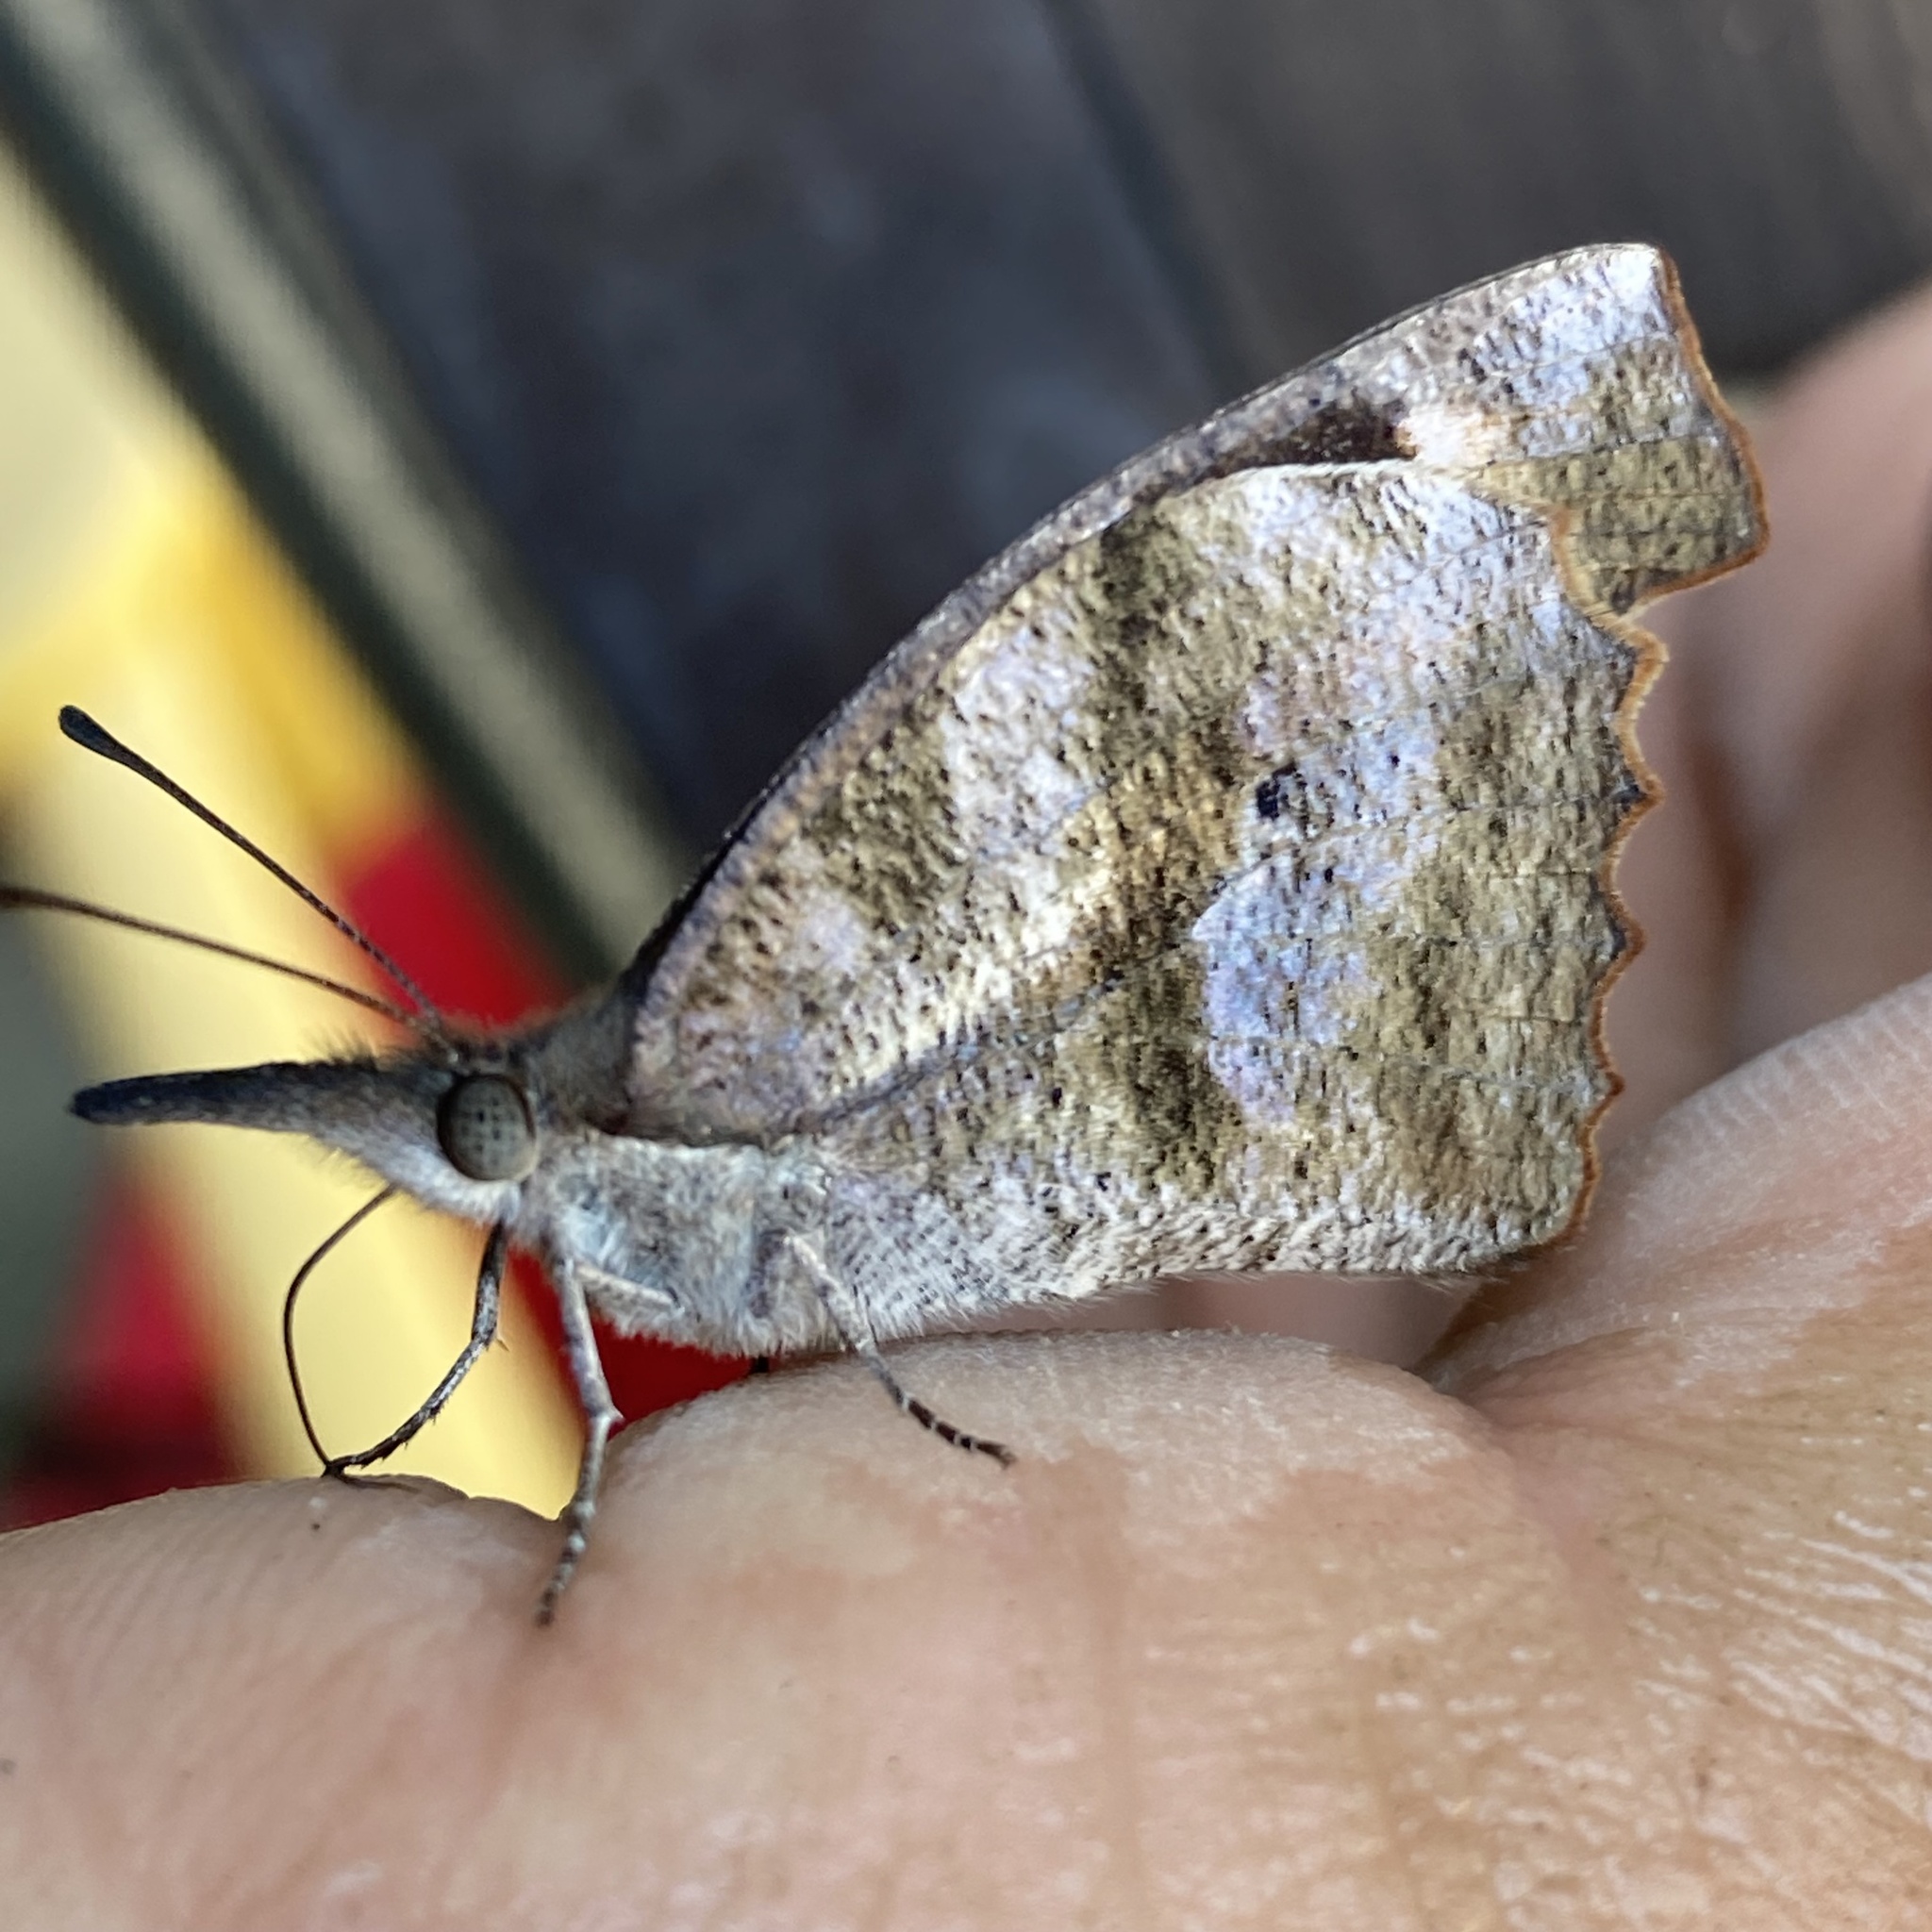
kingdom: Animalia
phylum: Arthropoda
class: Insecta
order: Lepidoptera
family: Nymphalidae
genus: Libytheana
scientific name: Libytheana carinenta
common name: American snout
